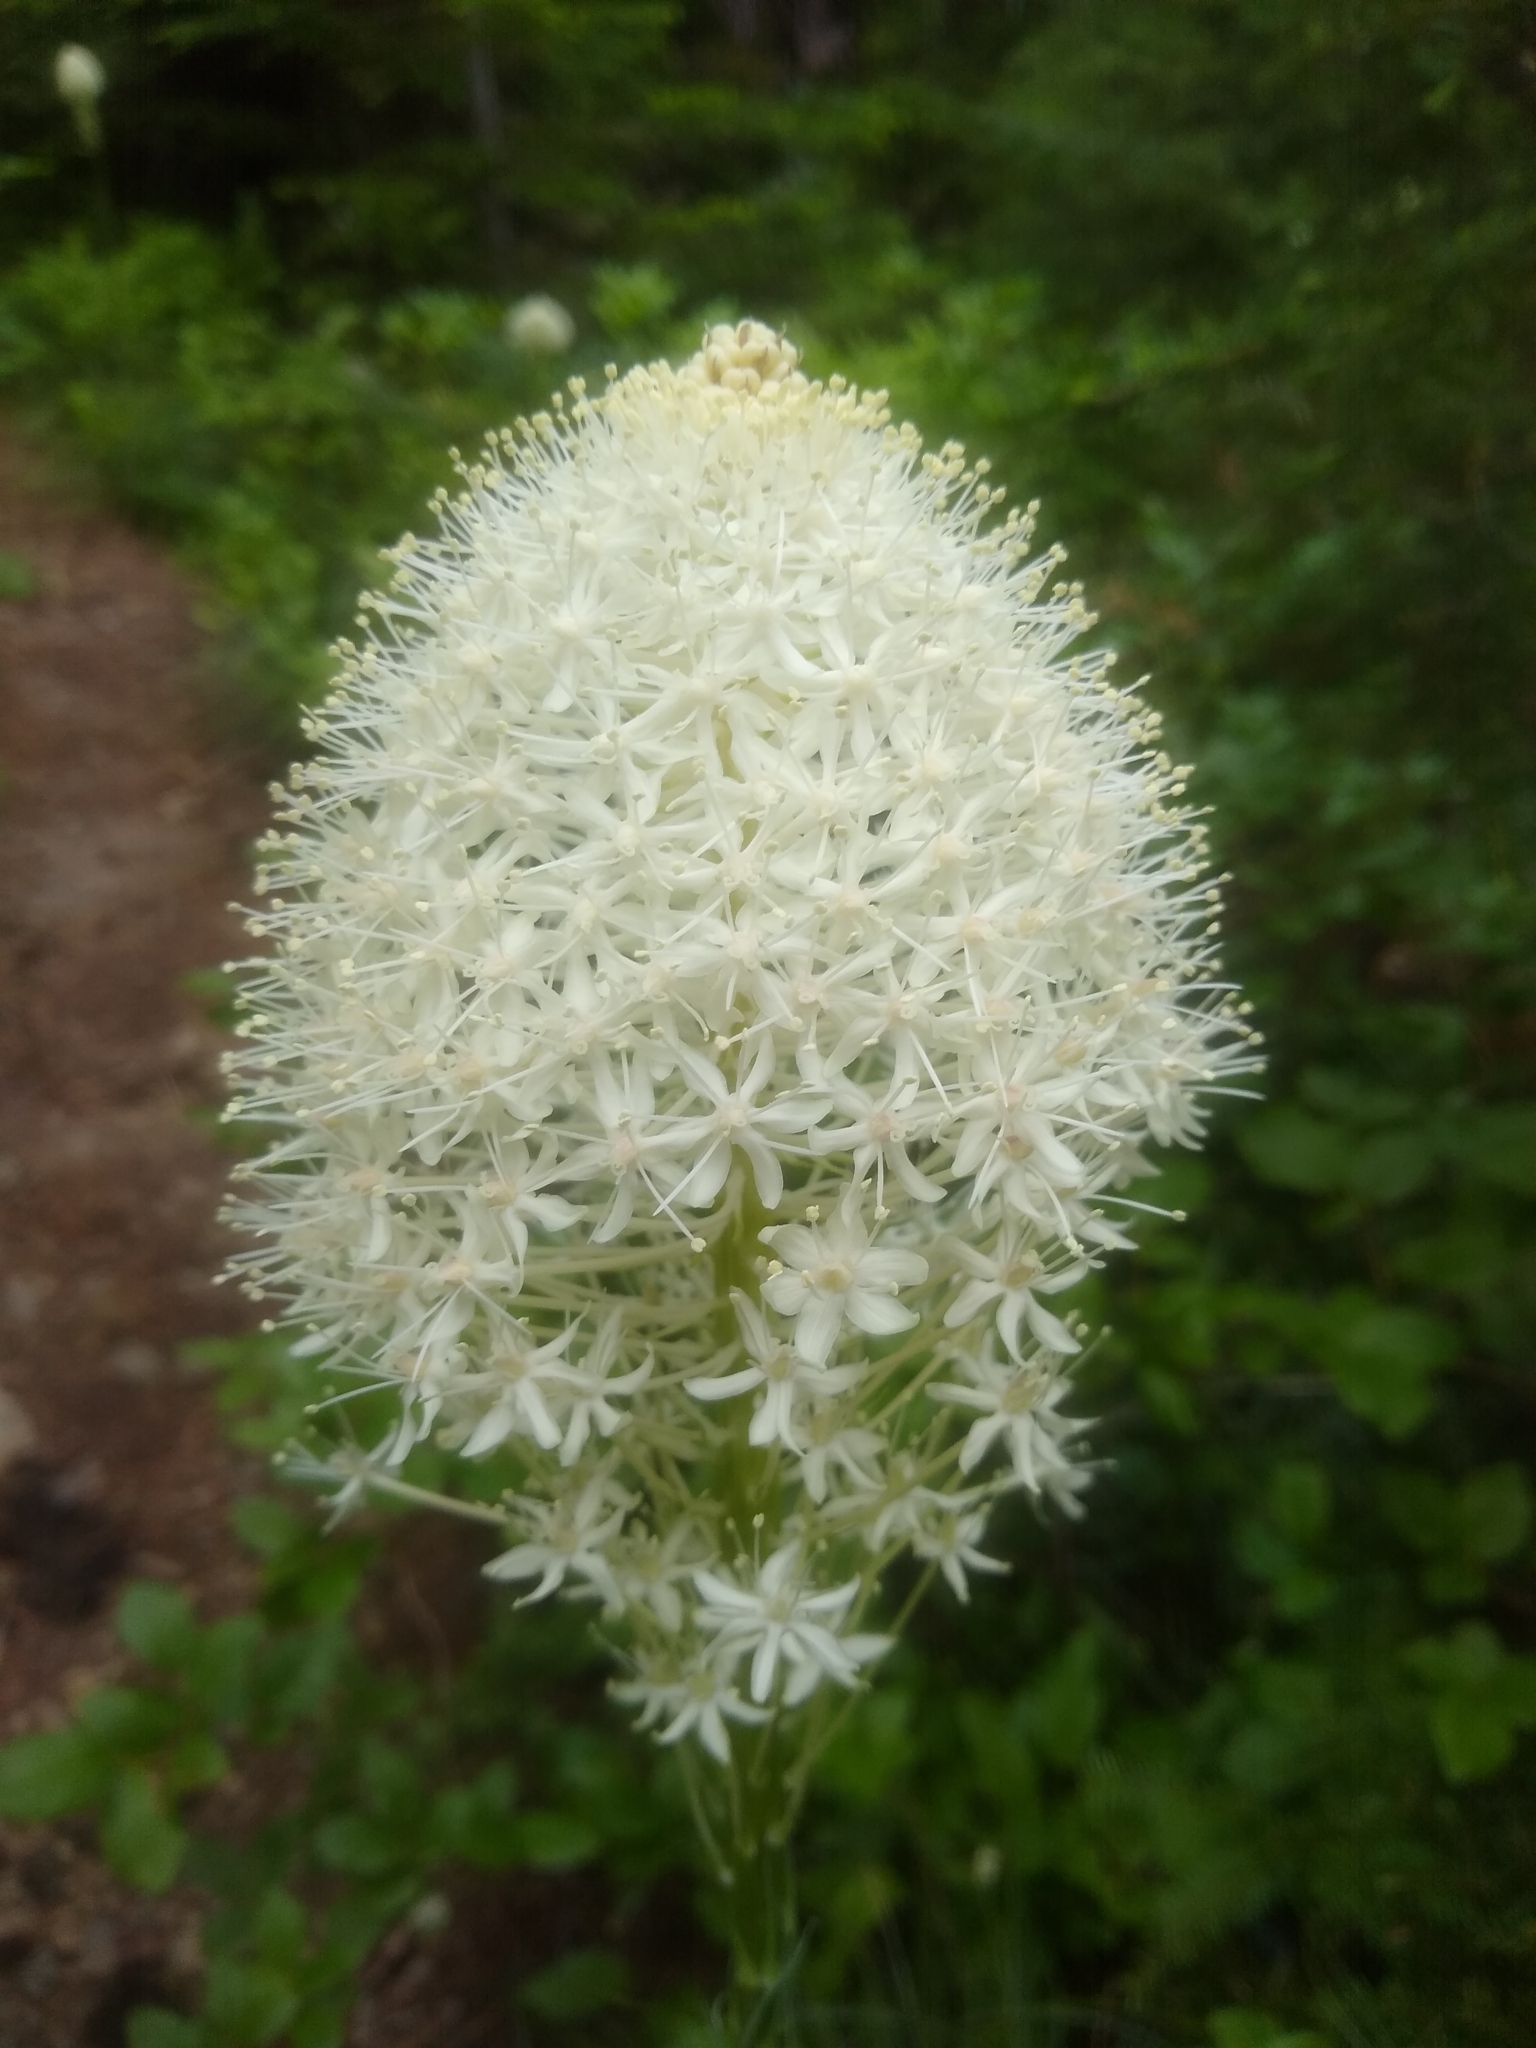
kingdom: Plantae
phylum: Tracheophyta
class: Liliopsida
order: Liliales
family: Melanthiaceae
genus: Xerophyllum
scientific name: Xerophyllum tenax
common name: Bear-grass
